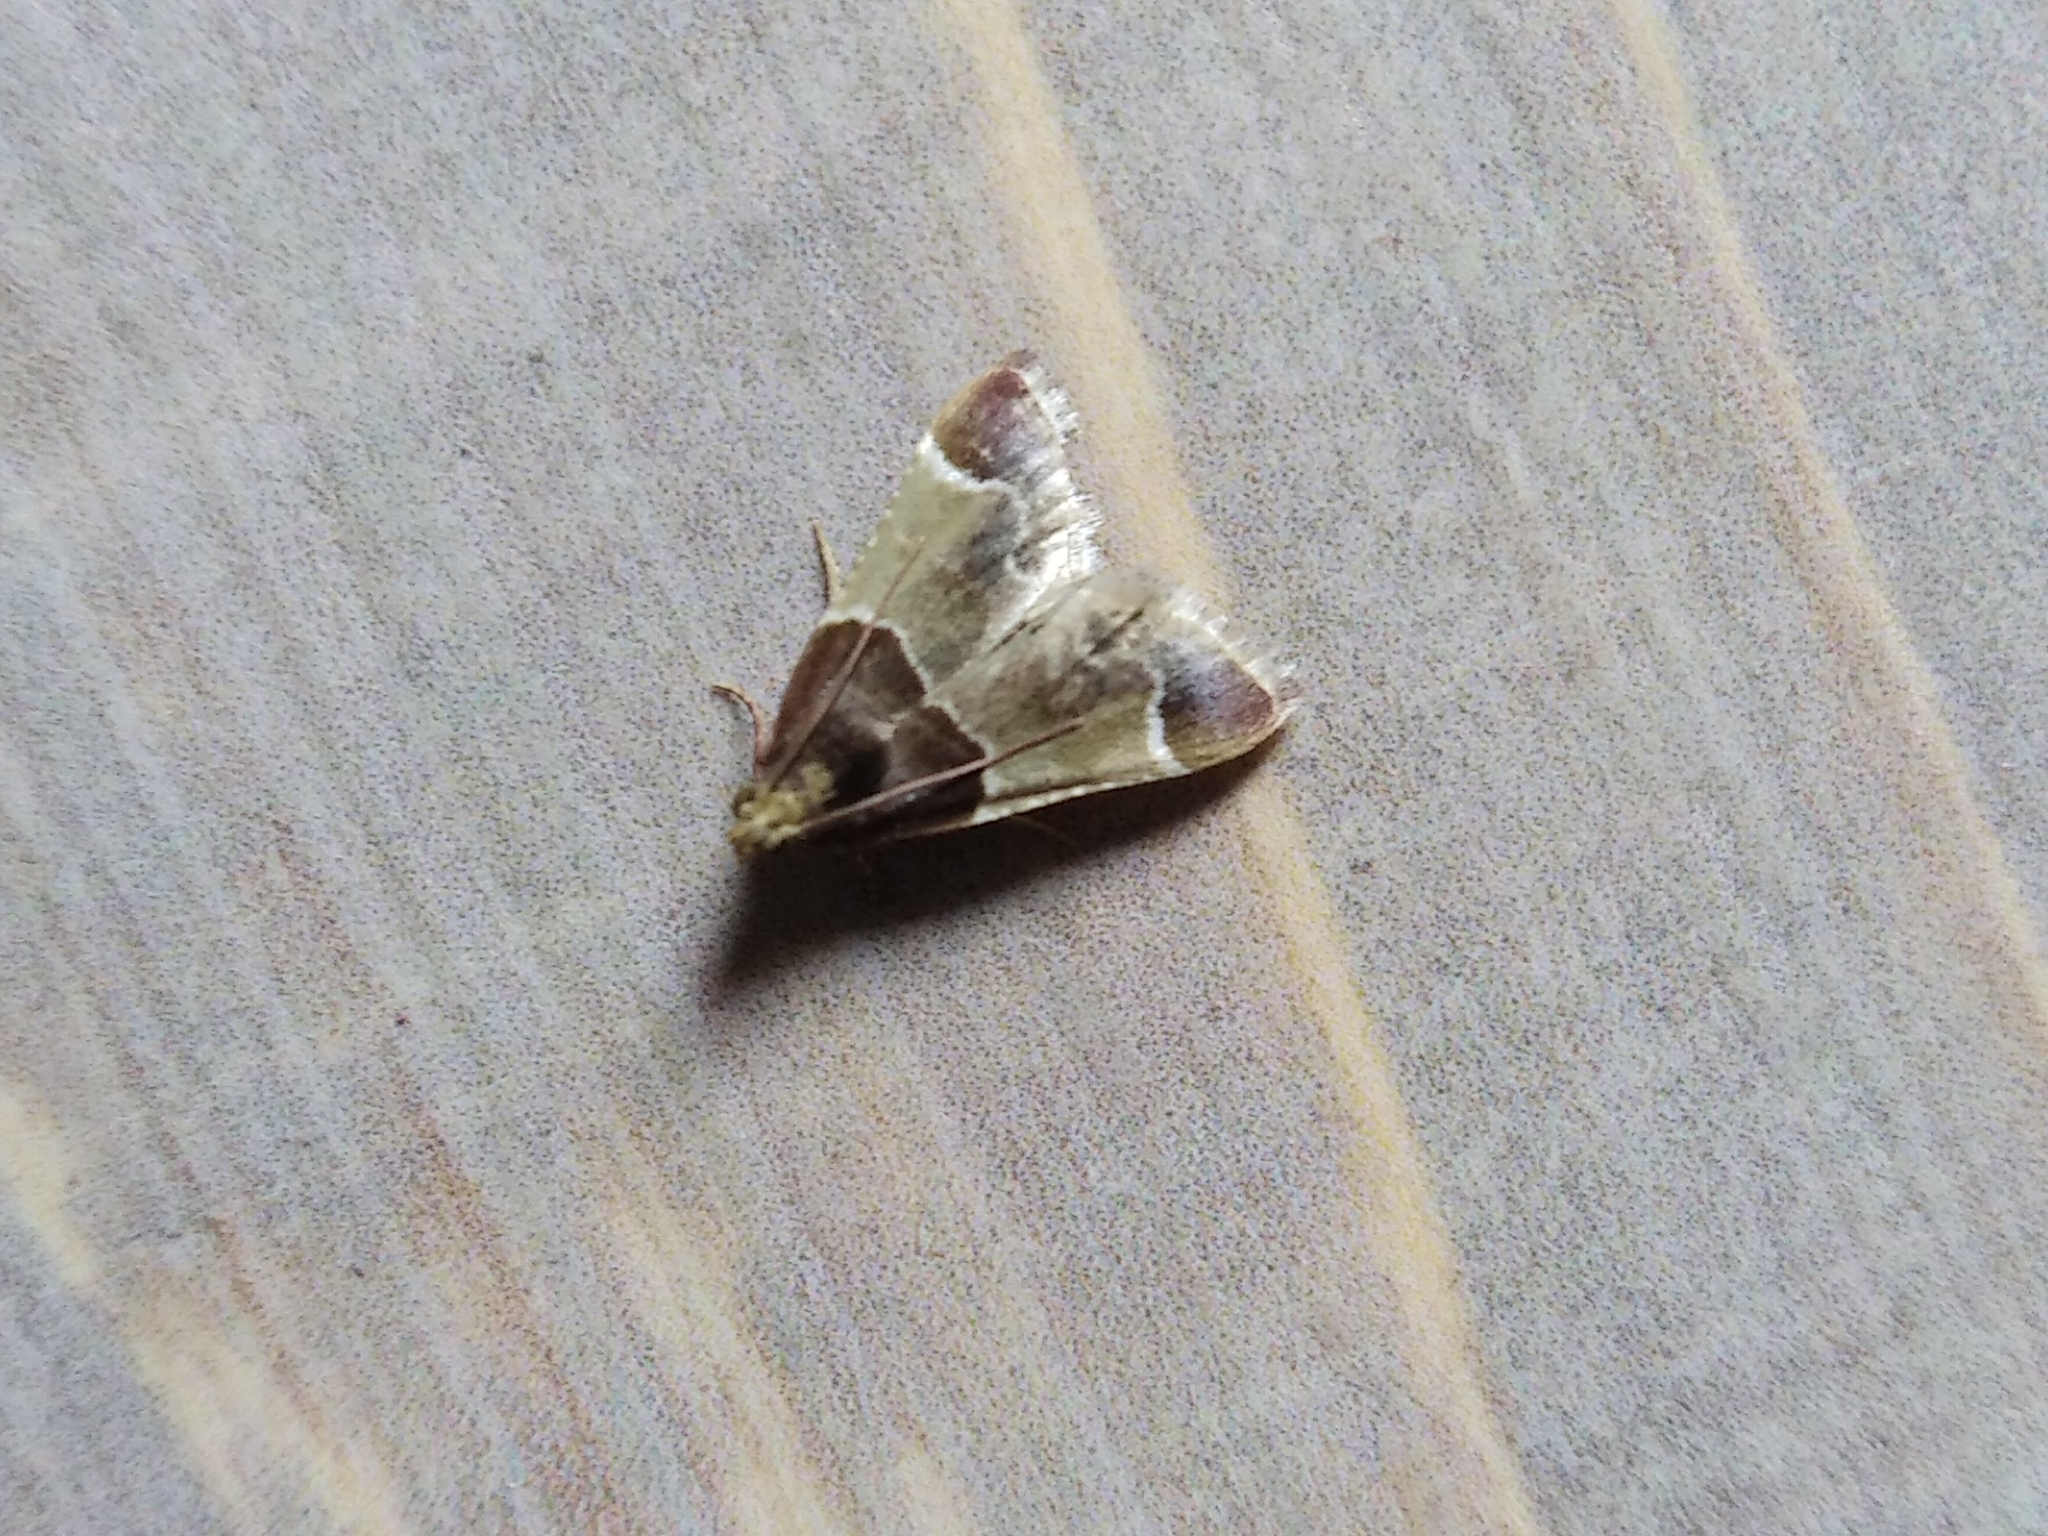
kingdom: Animalia
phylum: Arthropoda
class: Insecta
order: Lepidoptera
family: Pyralidae
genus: Pyralis
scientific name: Pyralis farinalis
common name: Meal moth
